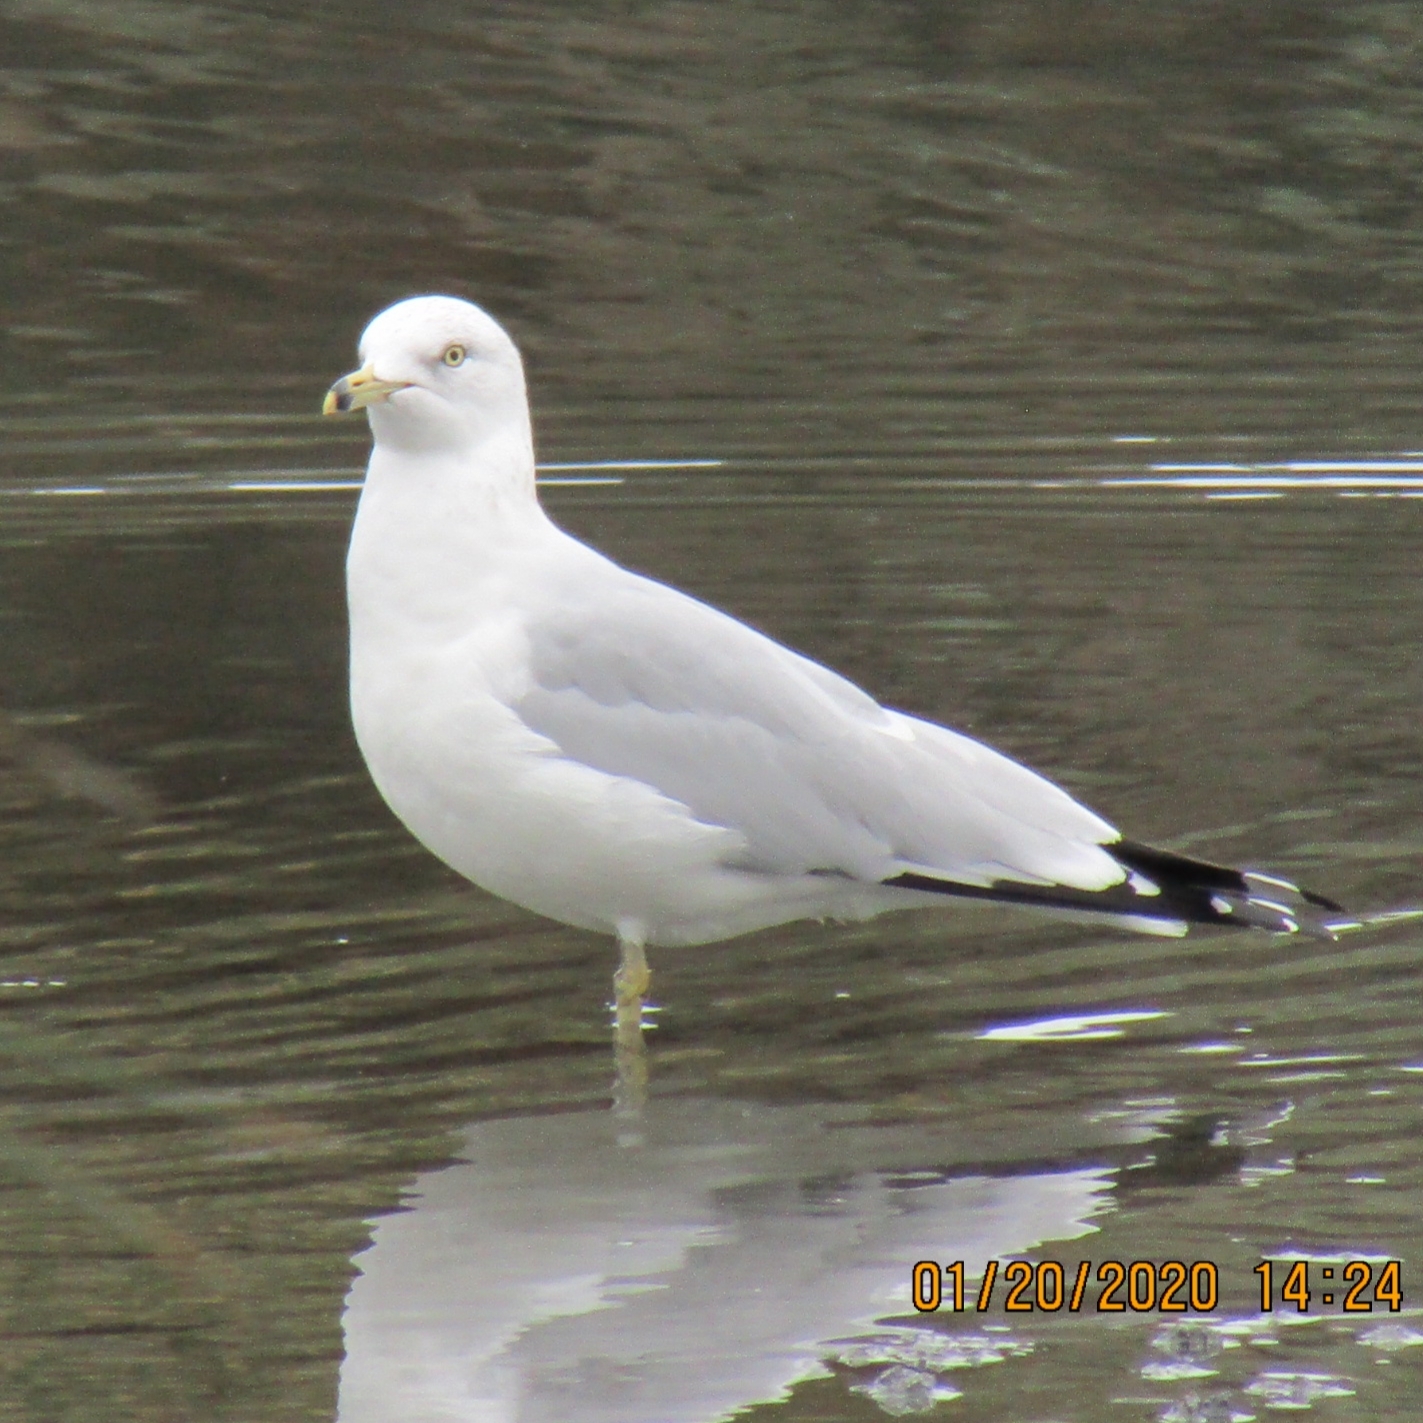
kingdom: Animalia
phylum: Chordata
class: Aves
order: Charadriiformes
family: Laridae
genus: Larus
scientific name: Larus delawarensis
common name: Ring-billed gull
